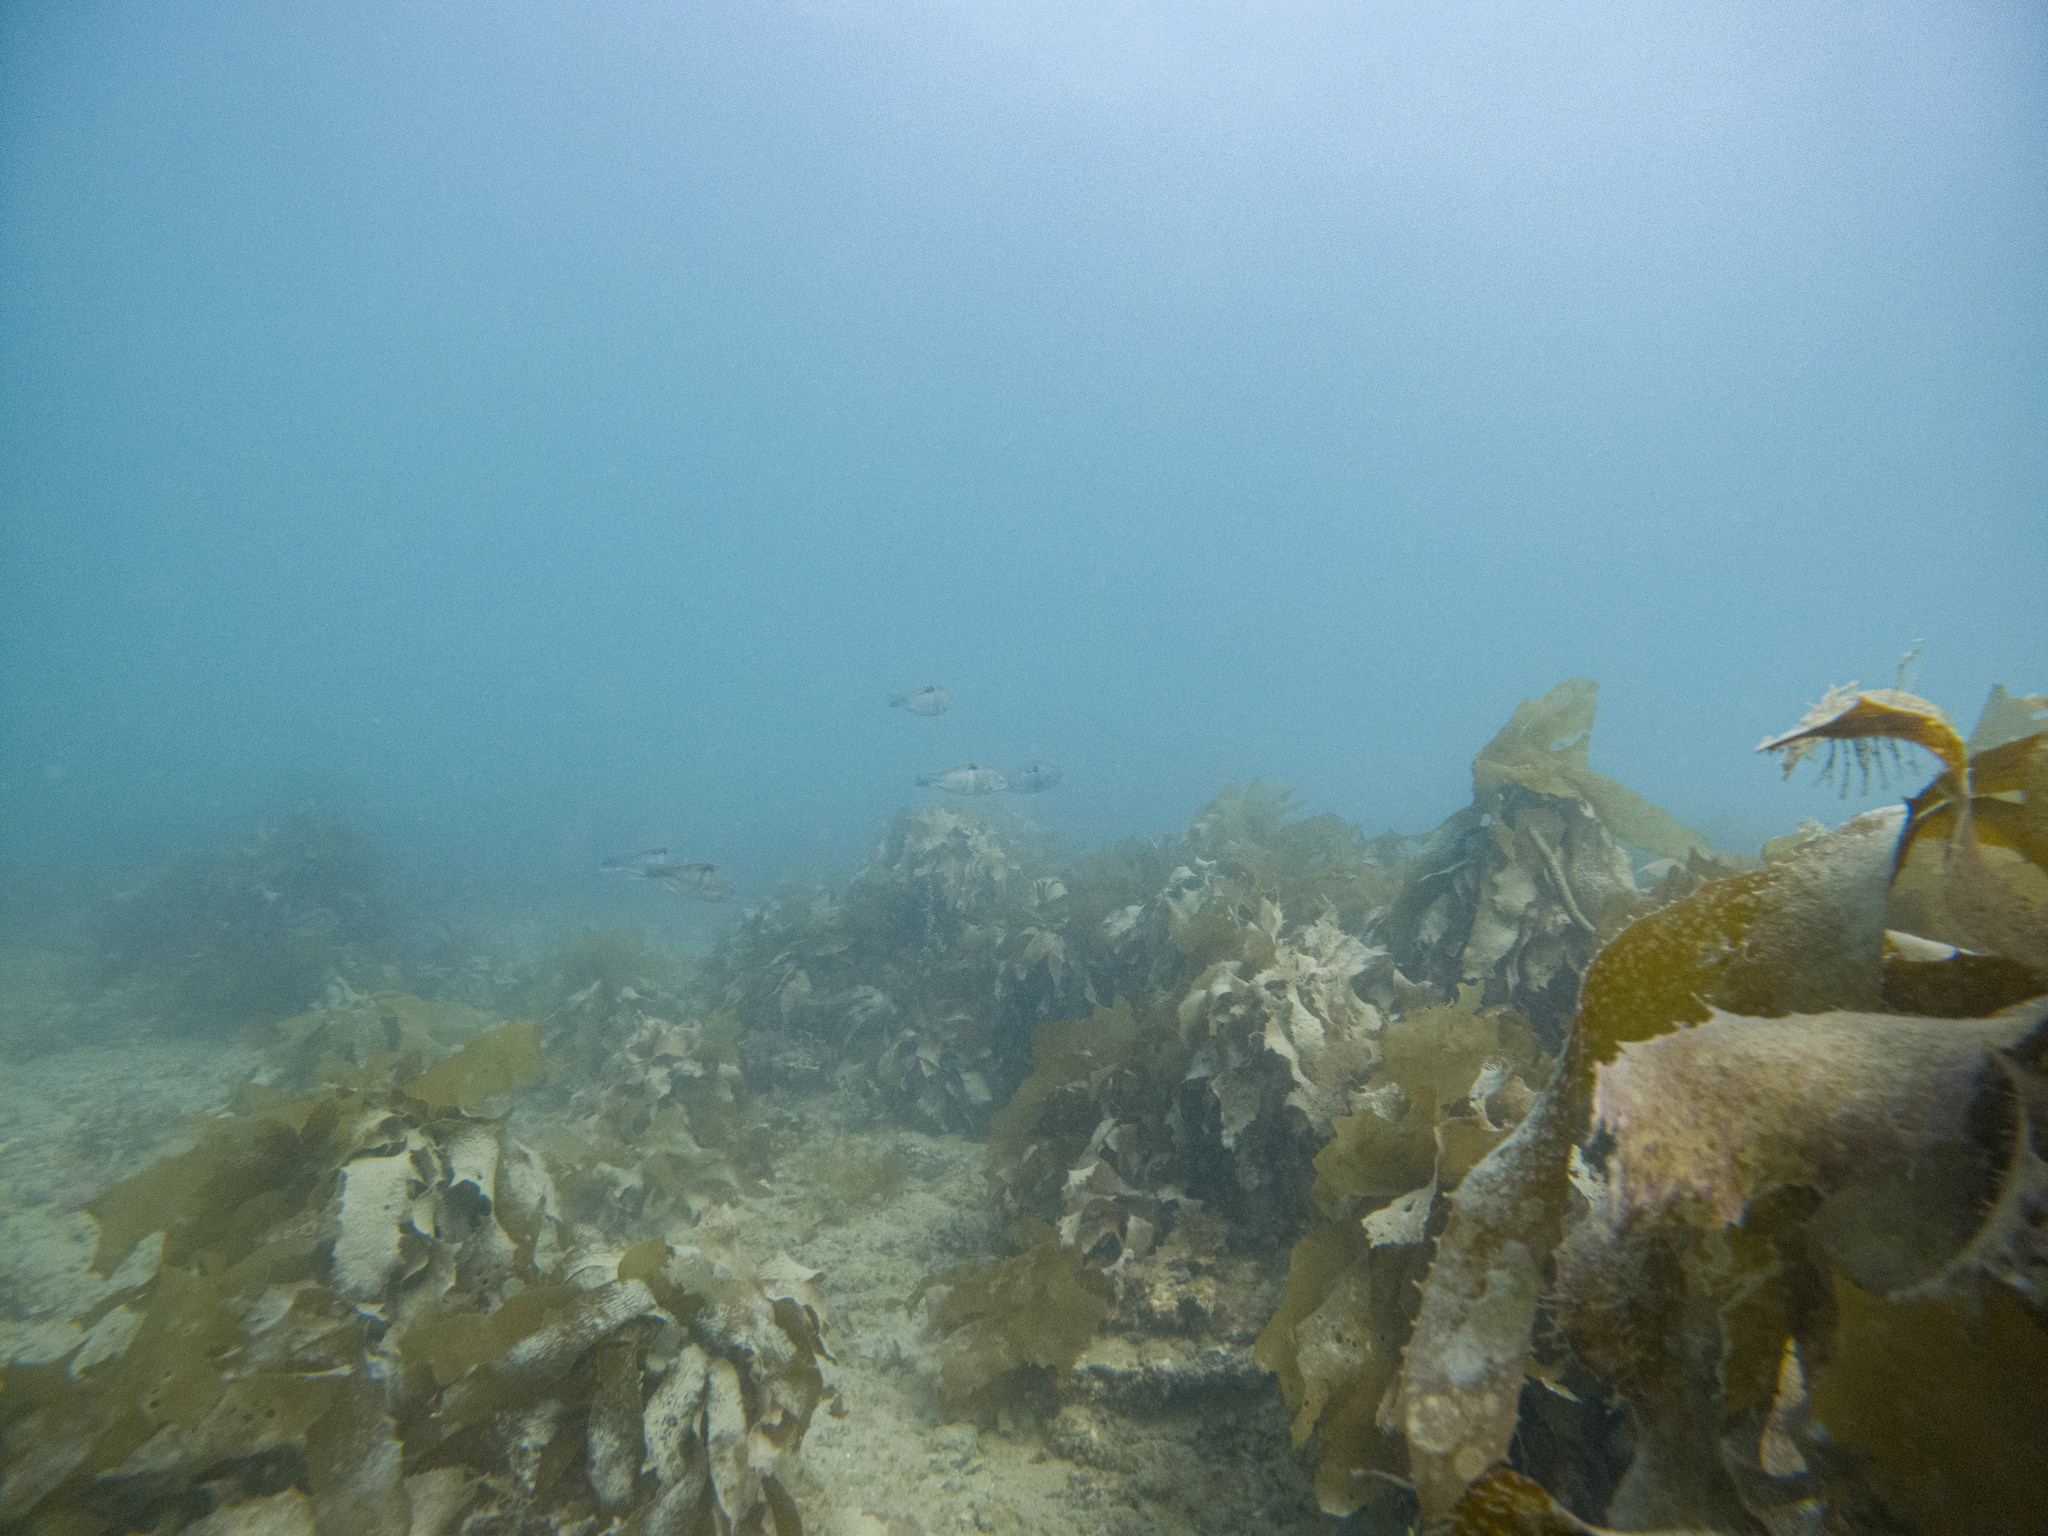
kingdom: Animalia
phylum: Chordata
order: Perciformes
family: Labridae
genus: Notolabrus
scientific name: Notolabrus celidotus
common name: Spotty
